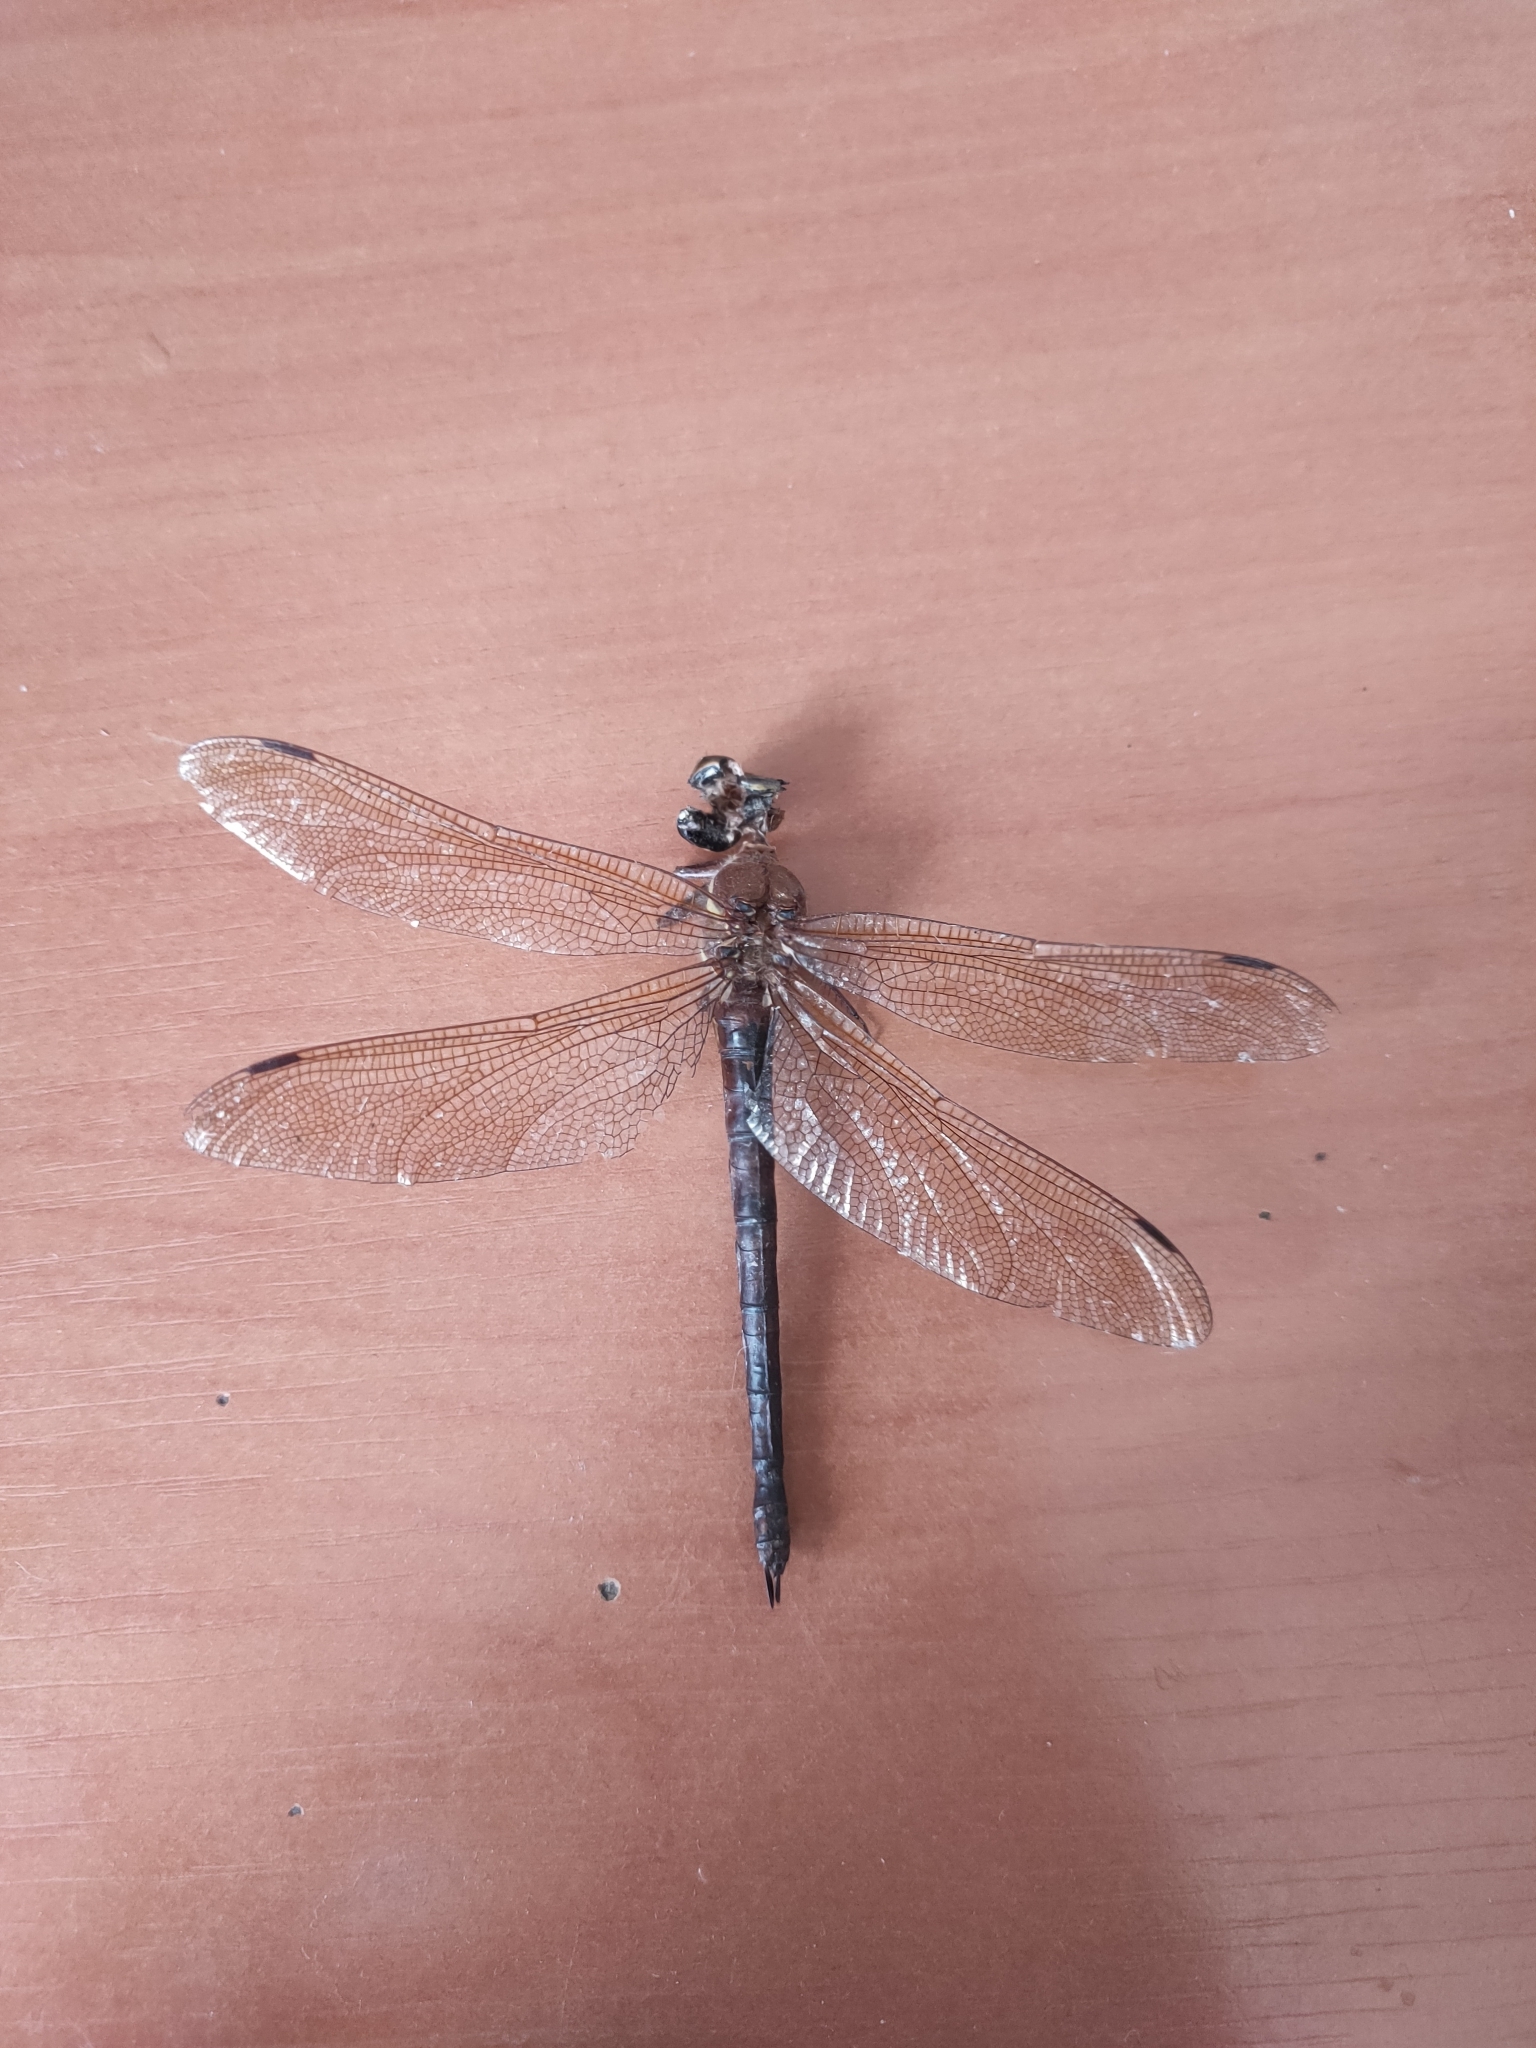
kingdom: Animalia
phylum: Arthropoda
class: Insecta
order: Odonata
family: Aeshnidae
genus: Aeshna
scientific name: Aeshna grandis
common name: Brown hawker
